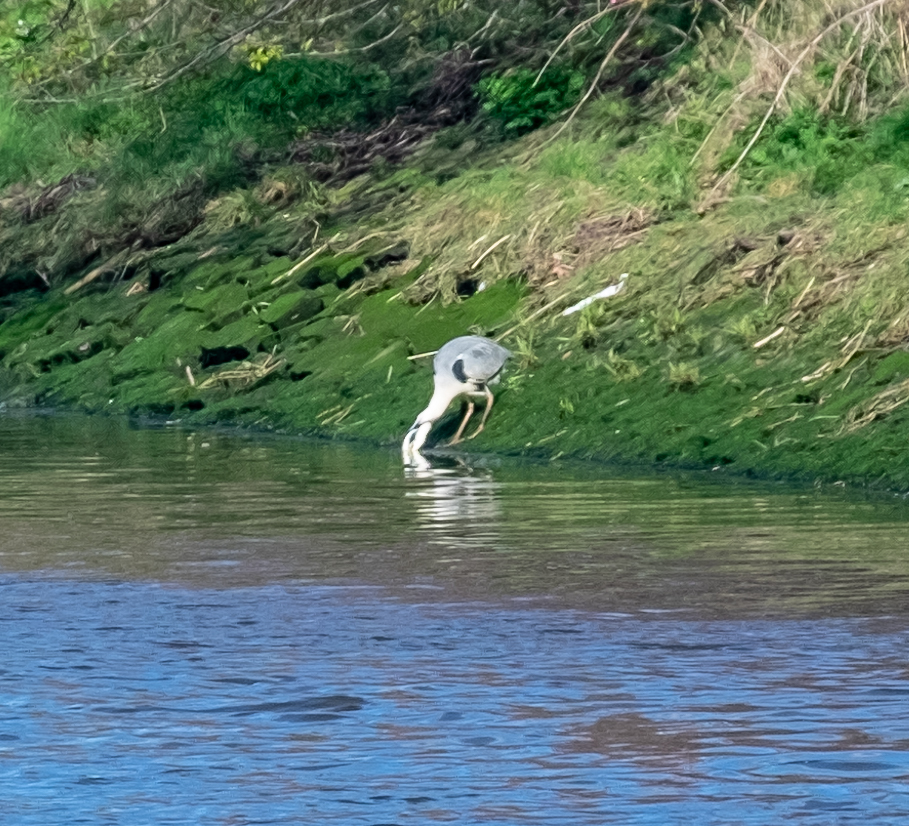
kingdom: Animalia
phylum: Chordata
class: Aves
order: Pelecaniformes
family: Ardeidae
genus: Ardea
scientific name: Ardea cinerea
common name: Grey heron
